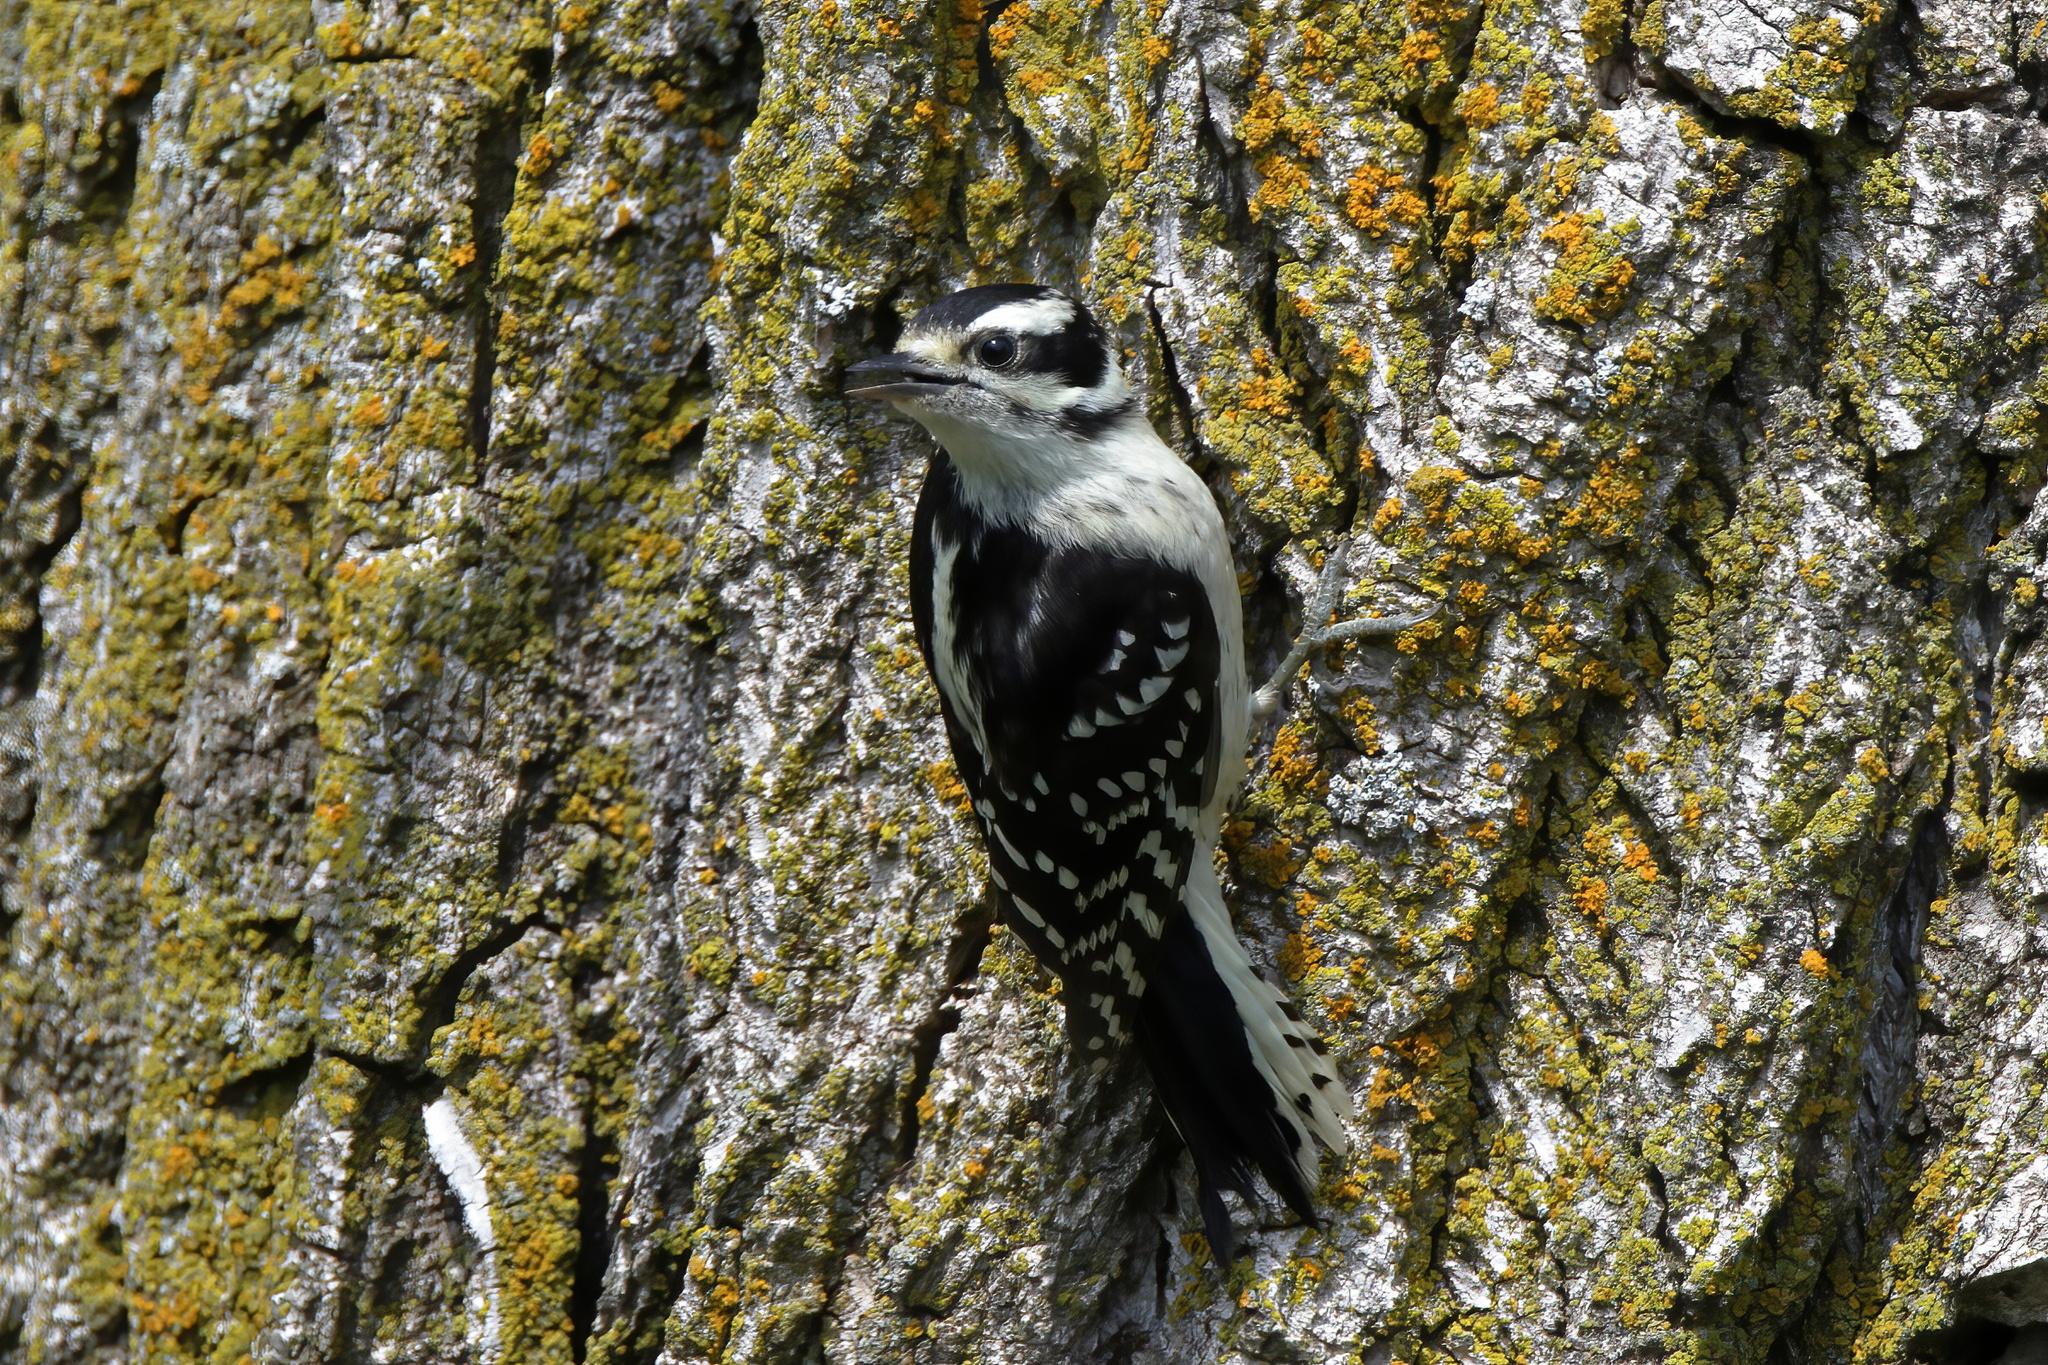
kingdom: Animalia
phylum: Chordata
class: Aves
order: Piciformes
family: Picidae
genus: Dryobates
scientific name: Dryobates pubescens
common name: Downy woodpecker
